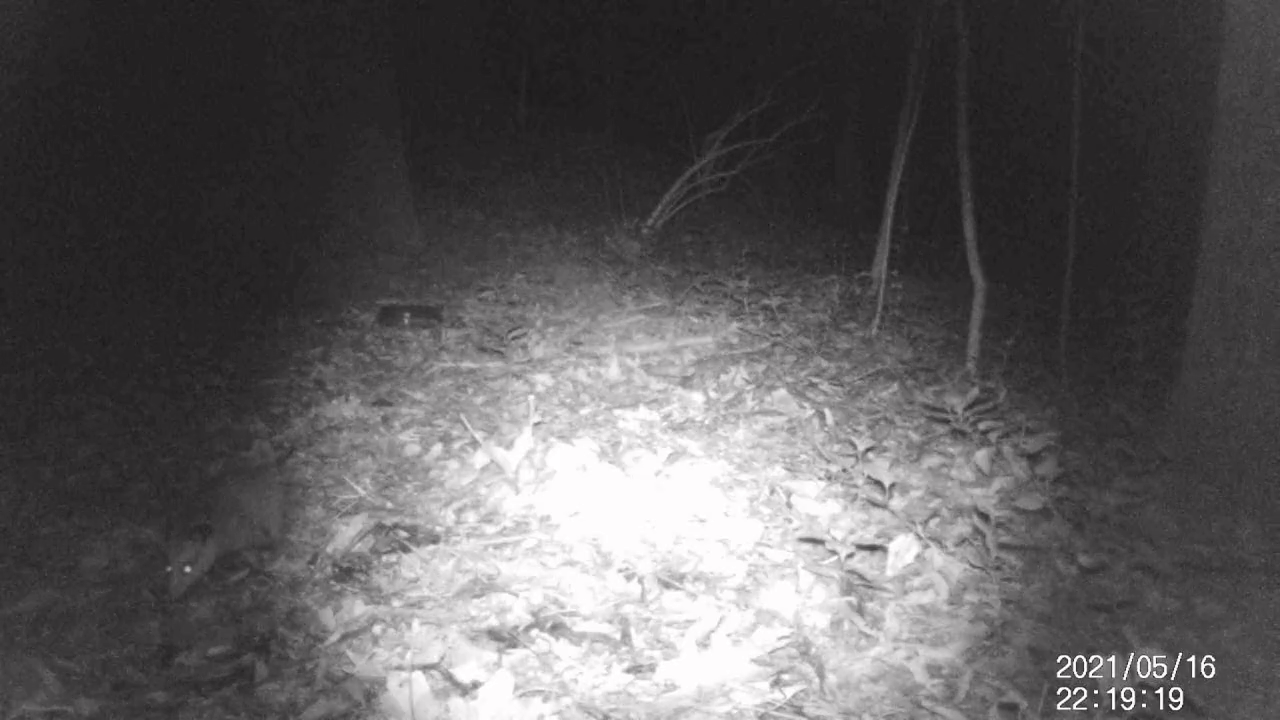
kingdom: Animalia
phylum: Chordata
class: Mammalia
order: Didelphimorphia
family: Didelphidae
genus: Didelphis
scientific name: Didelphis virginiana
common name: Virginia opossum
